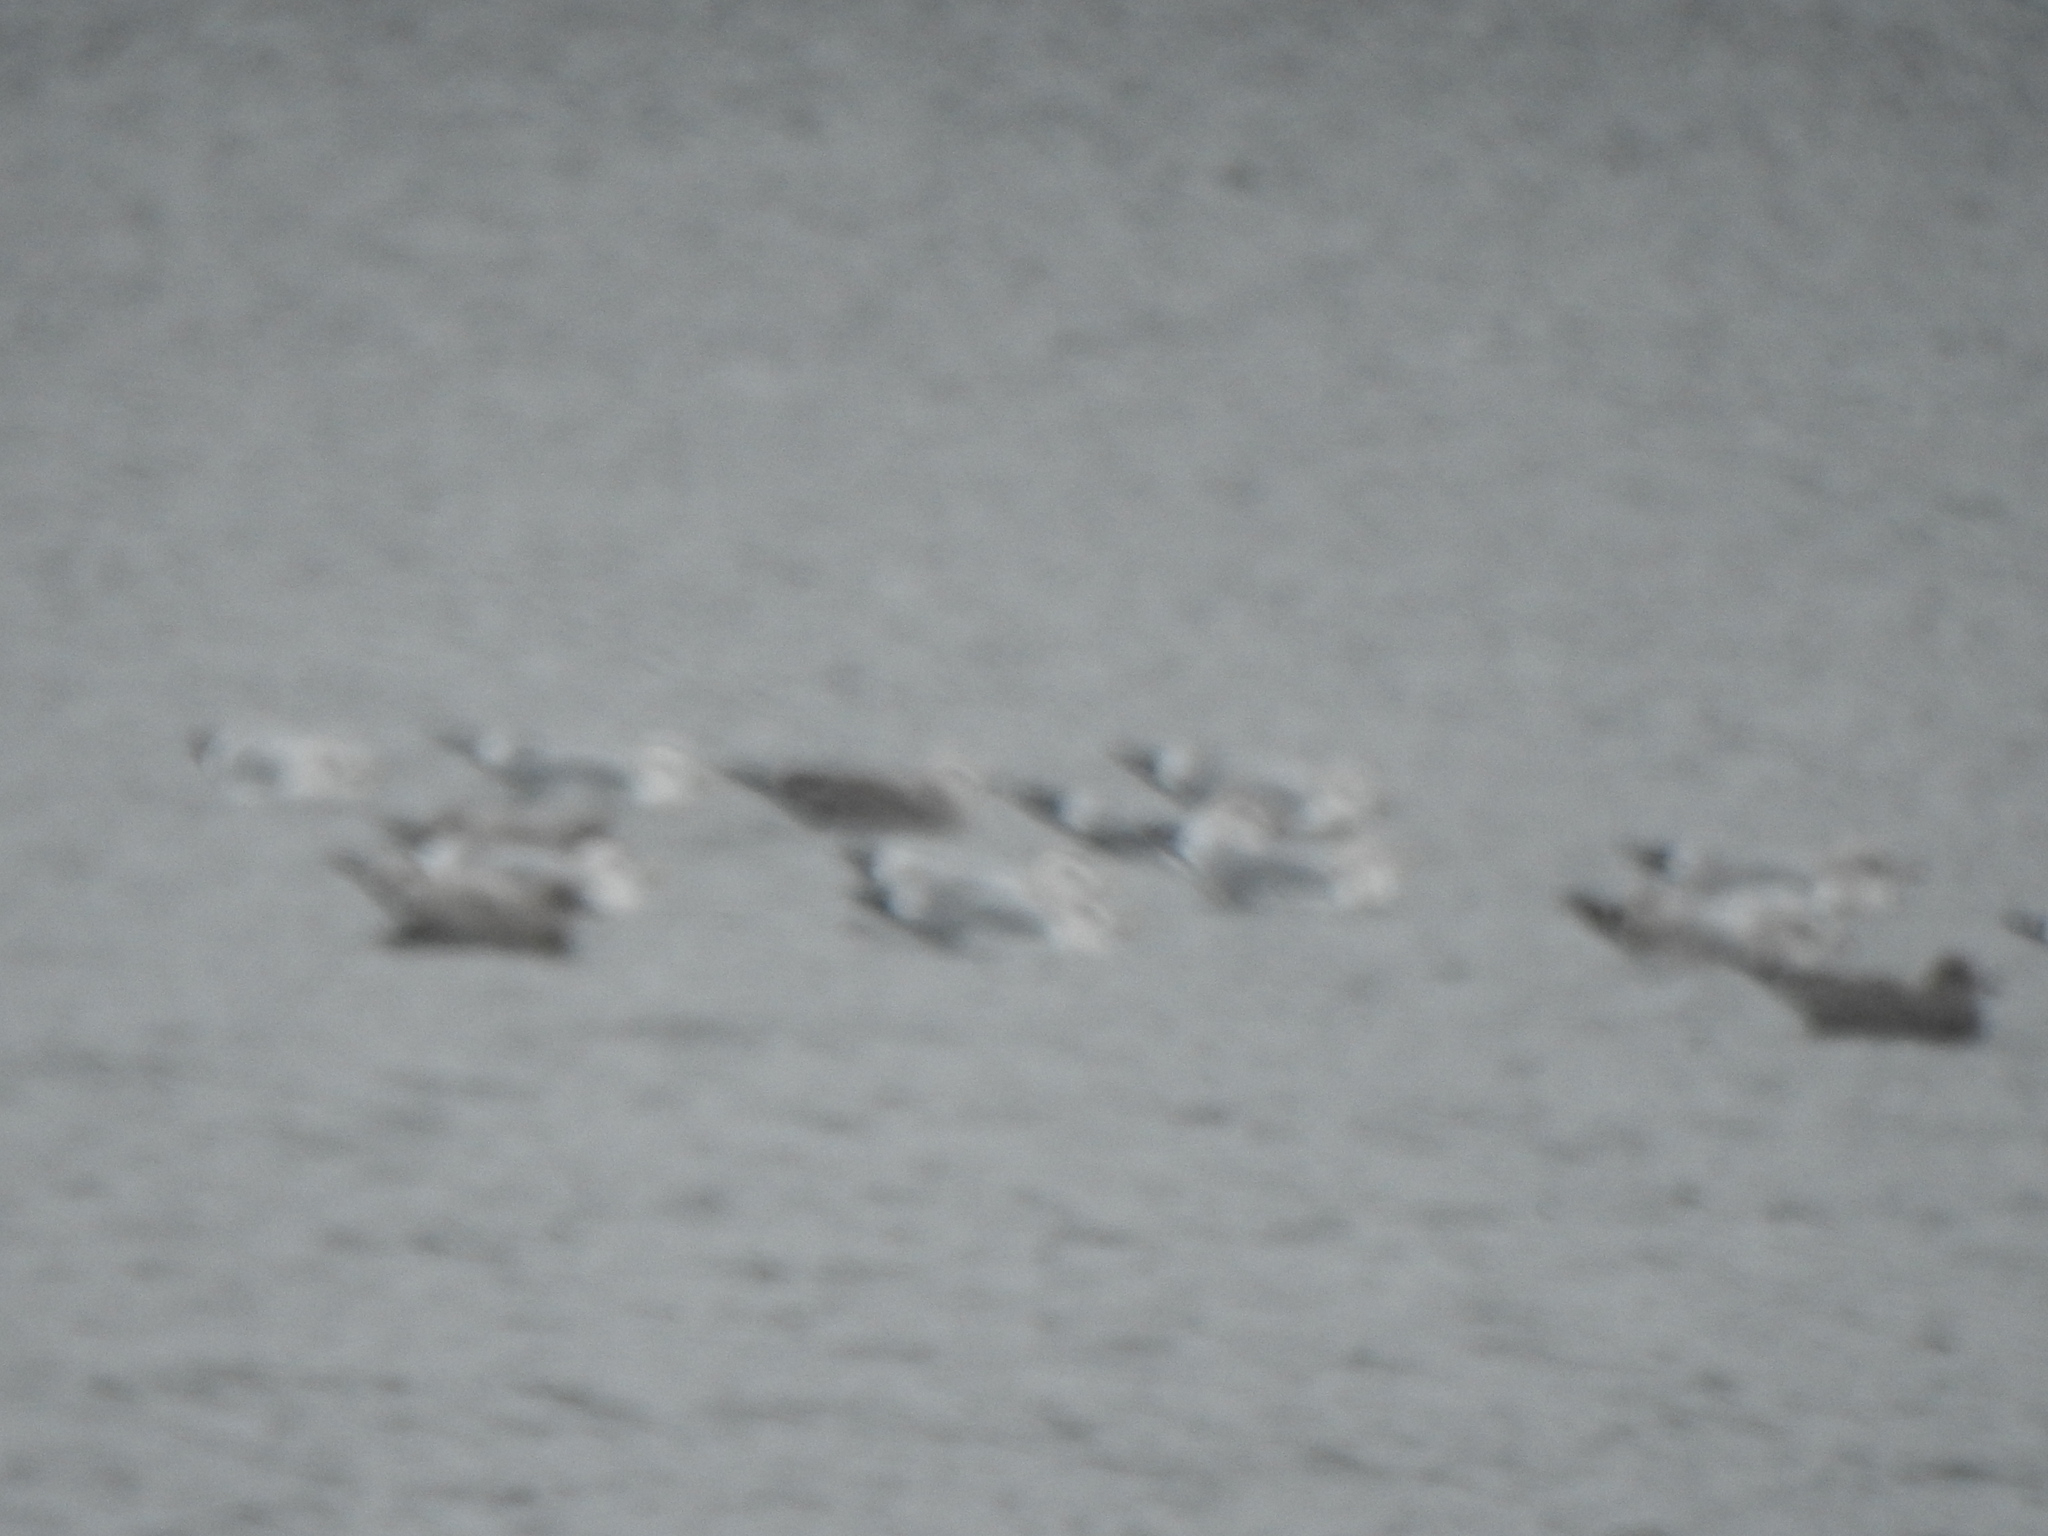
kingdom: Animalia
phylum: Chordata
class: Aves
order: Charadriiformes
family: Laridae
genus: Larus
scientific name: Larus fuscus
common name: Lesser black-backed gull
